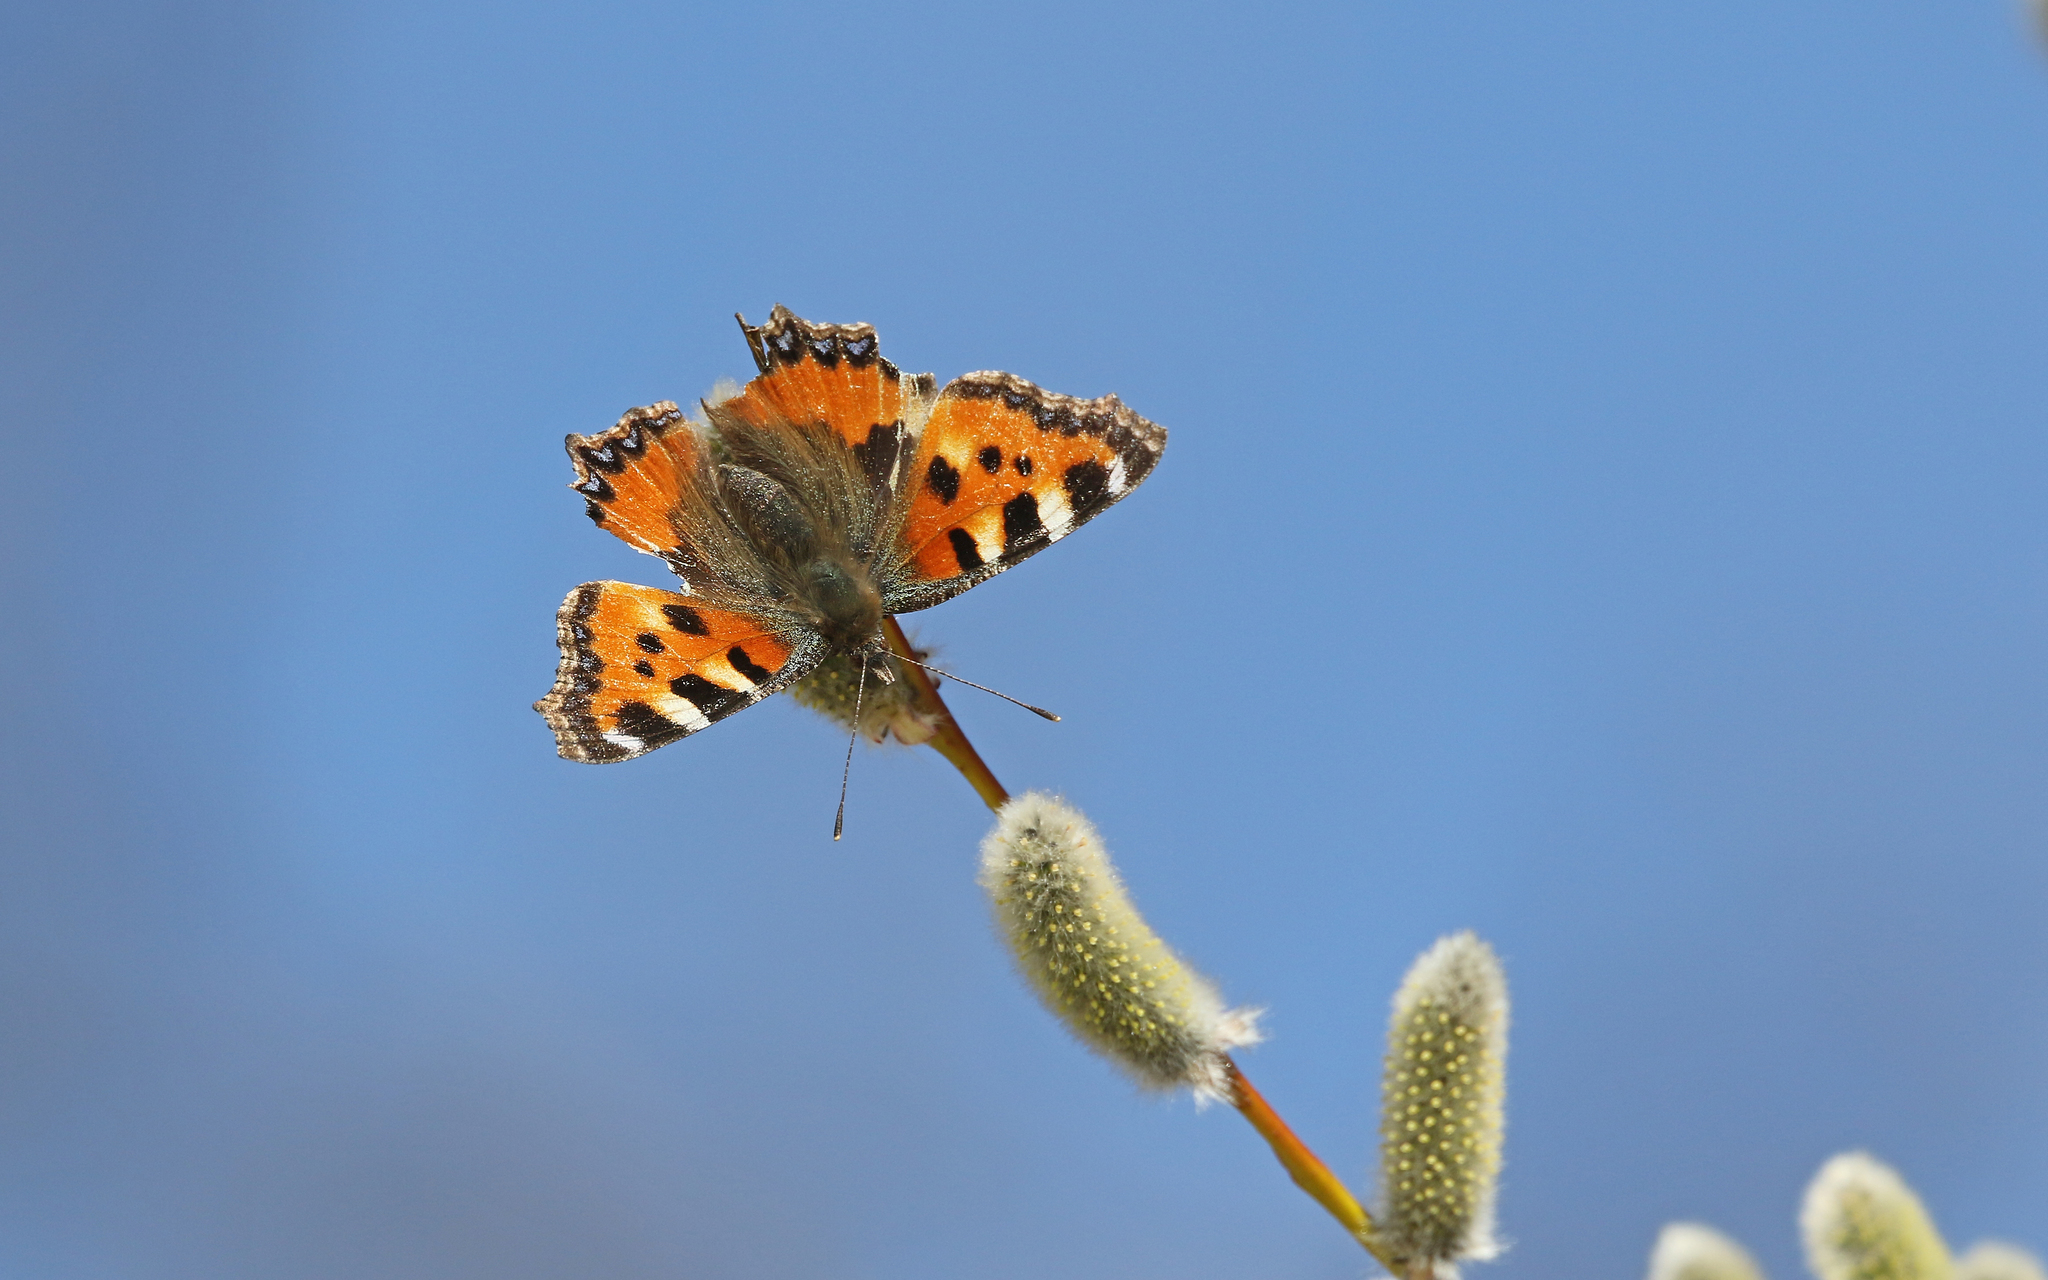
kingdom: Animalia
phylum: Arthropoda
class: Insecta
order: Lepidoptera
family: Nymphalidae
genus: Aglais
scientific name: Aglais urticae
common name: Small tortoiseshell
